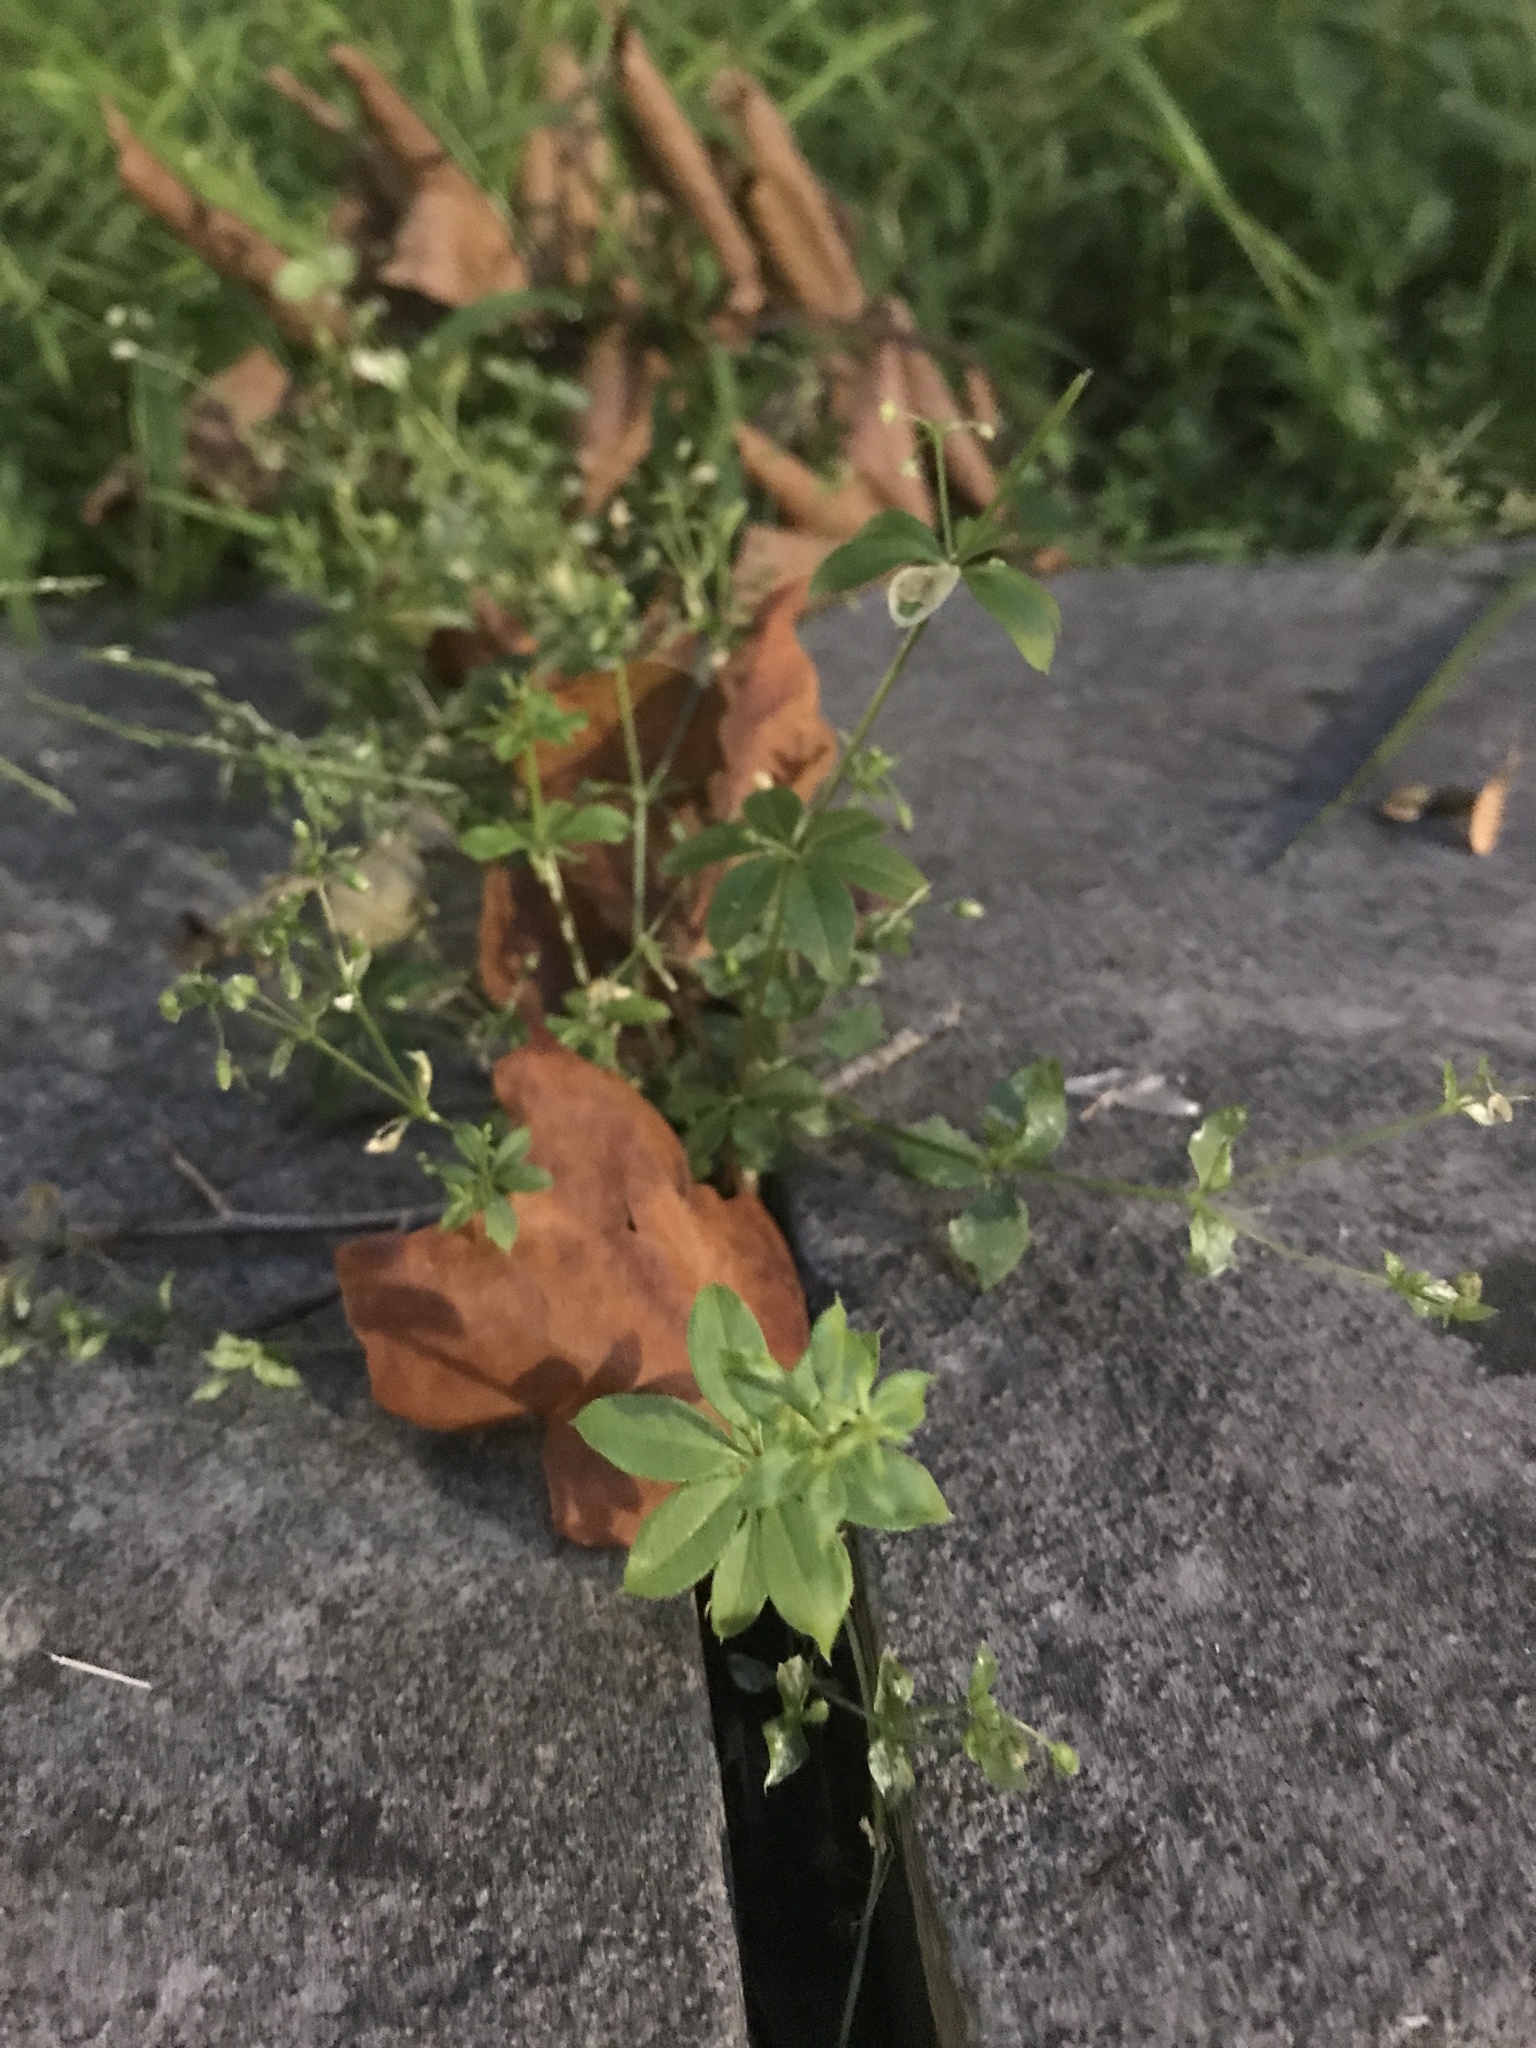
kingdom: Plantae
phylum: Tracheophyta
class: Magnoliopsida
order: Gentianales
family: Rubiaceae
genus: Galium
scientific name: Galium triflorum
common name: Fragrant bedstraw
